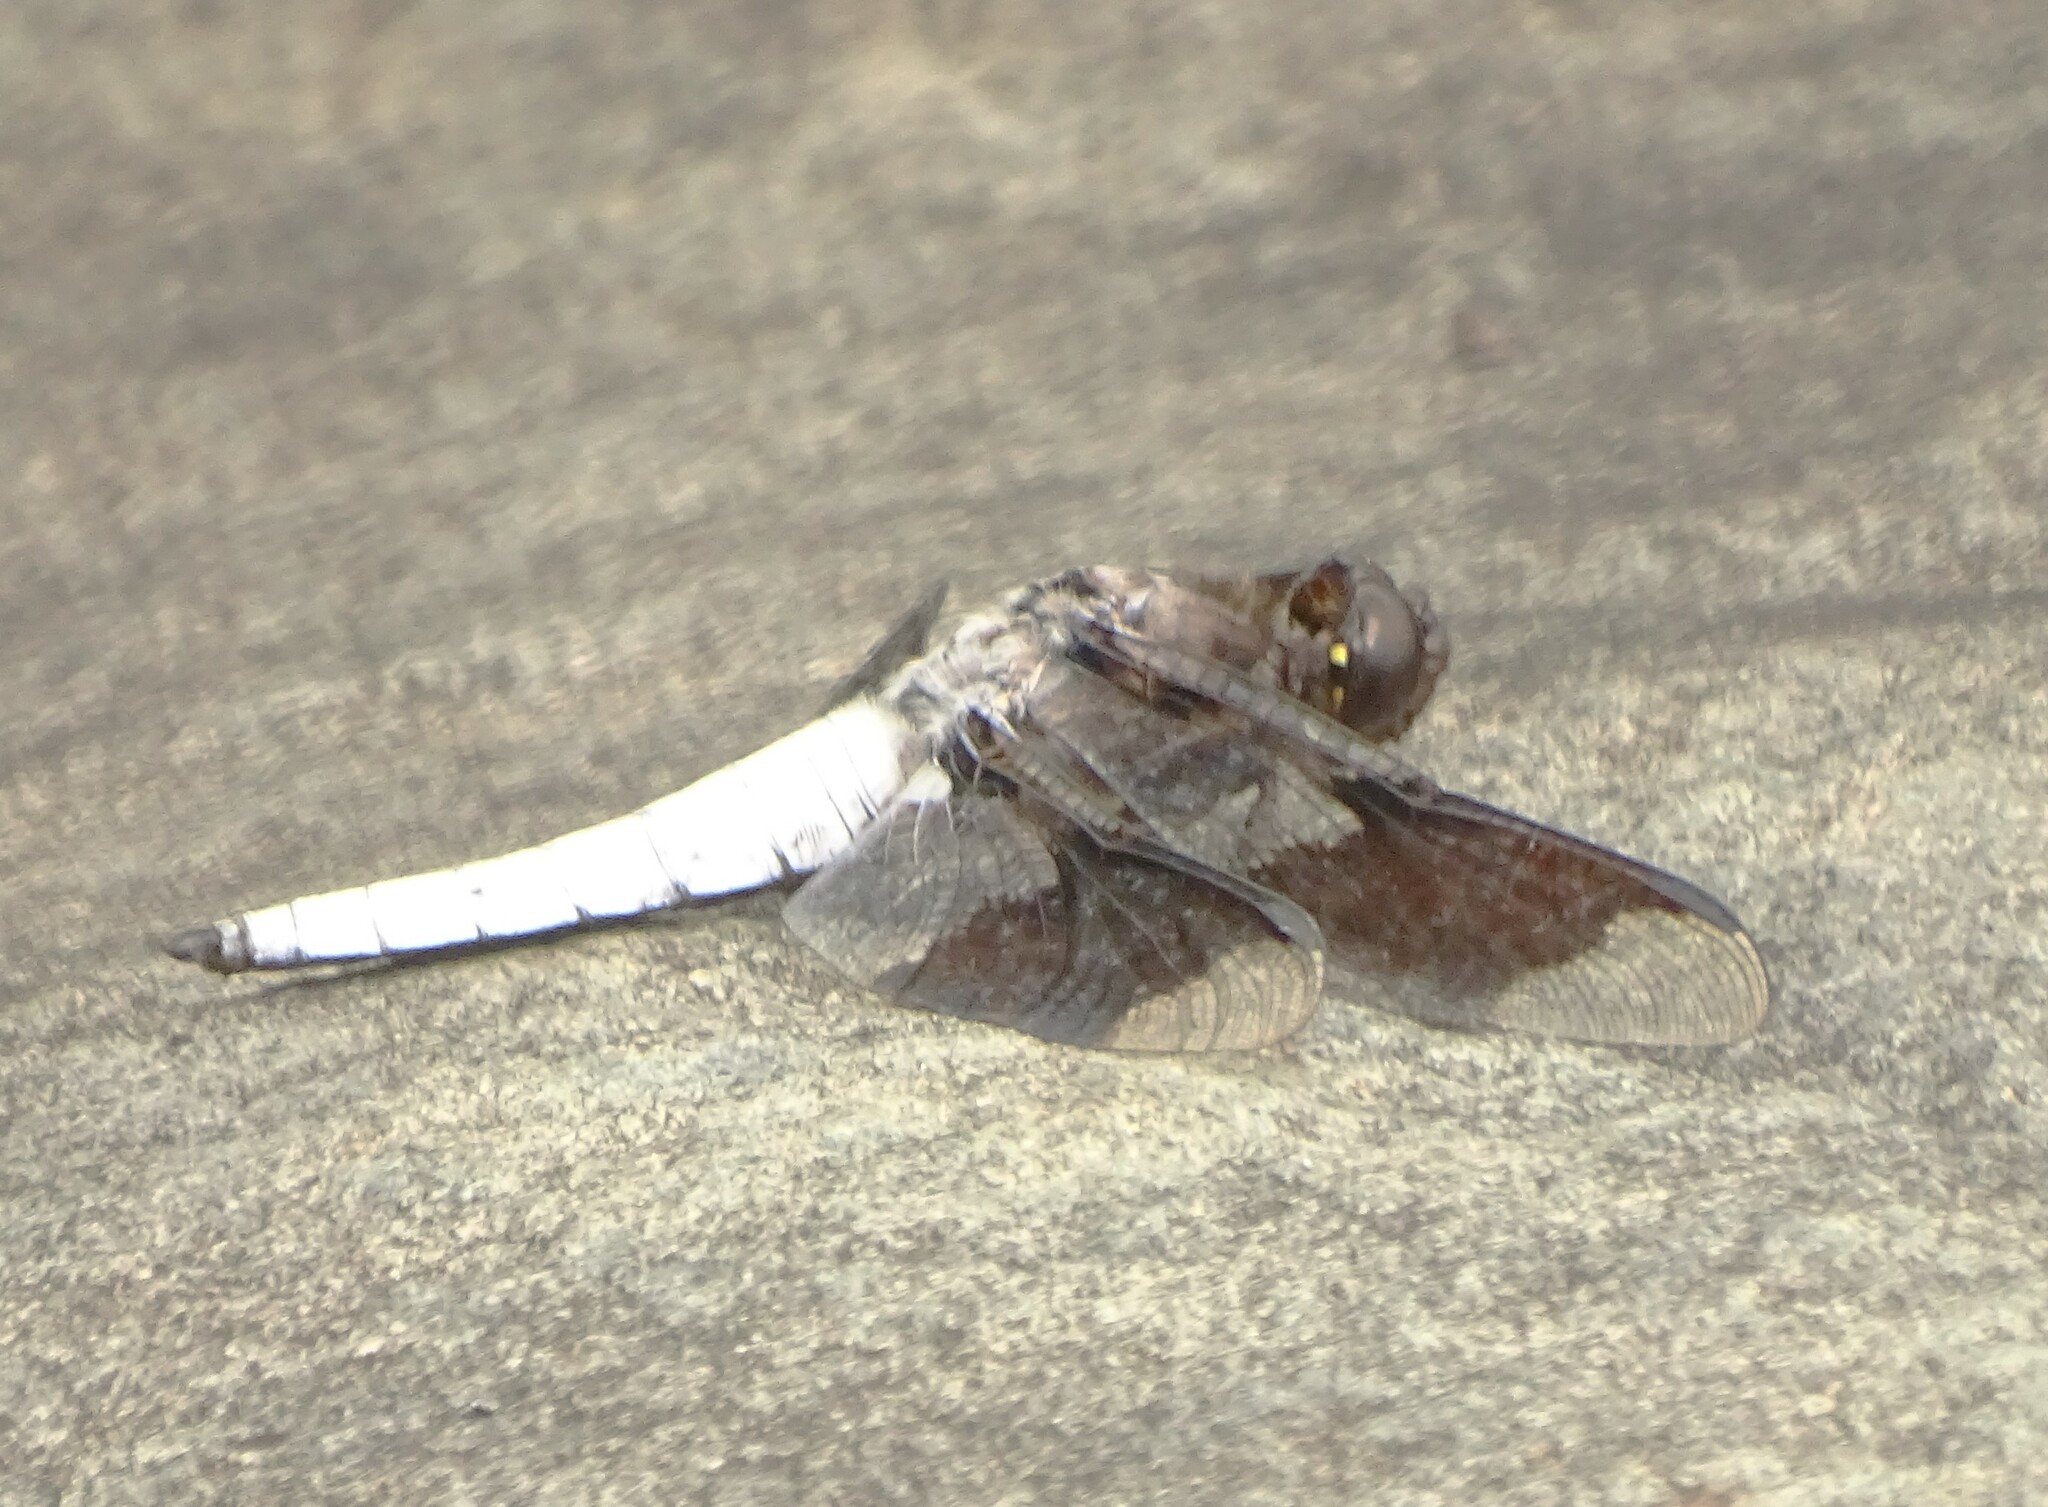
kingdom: Animalia
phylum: Arthropoda
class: Insecta
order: Odonata
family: Libellulidae
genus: Plathemis
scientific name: Plathemis lydia
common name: Common whitetail
